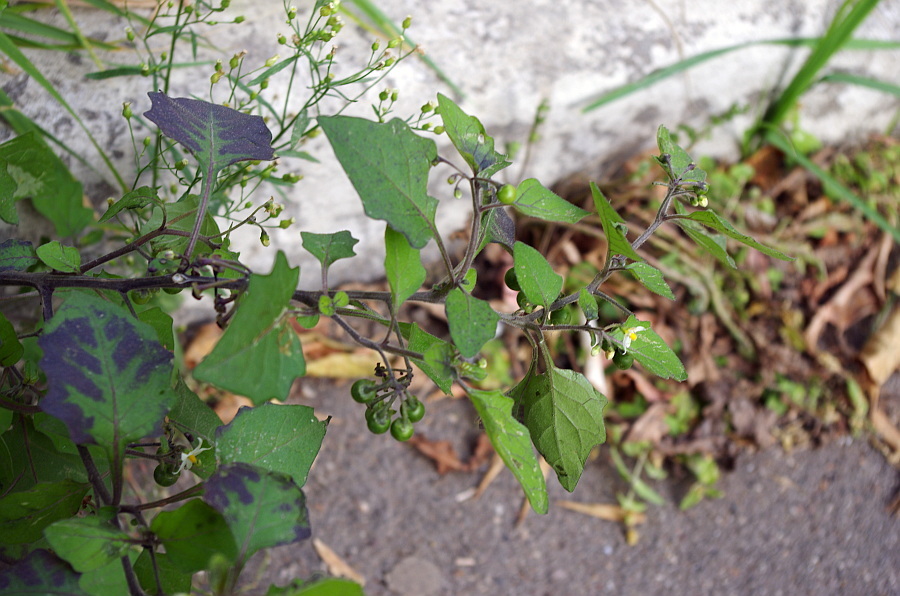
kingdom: Plantae
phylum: Tracheophyta
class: Magnoliopsida
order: Solanales
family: Solanaceae
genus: Solanum
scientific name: Solanum nigrum
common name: Black nightshade
